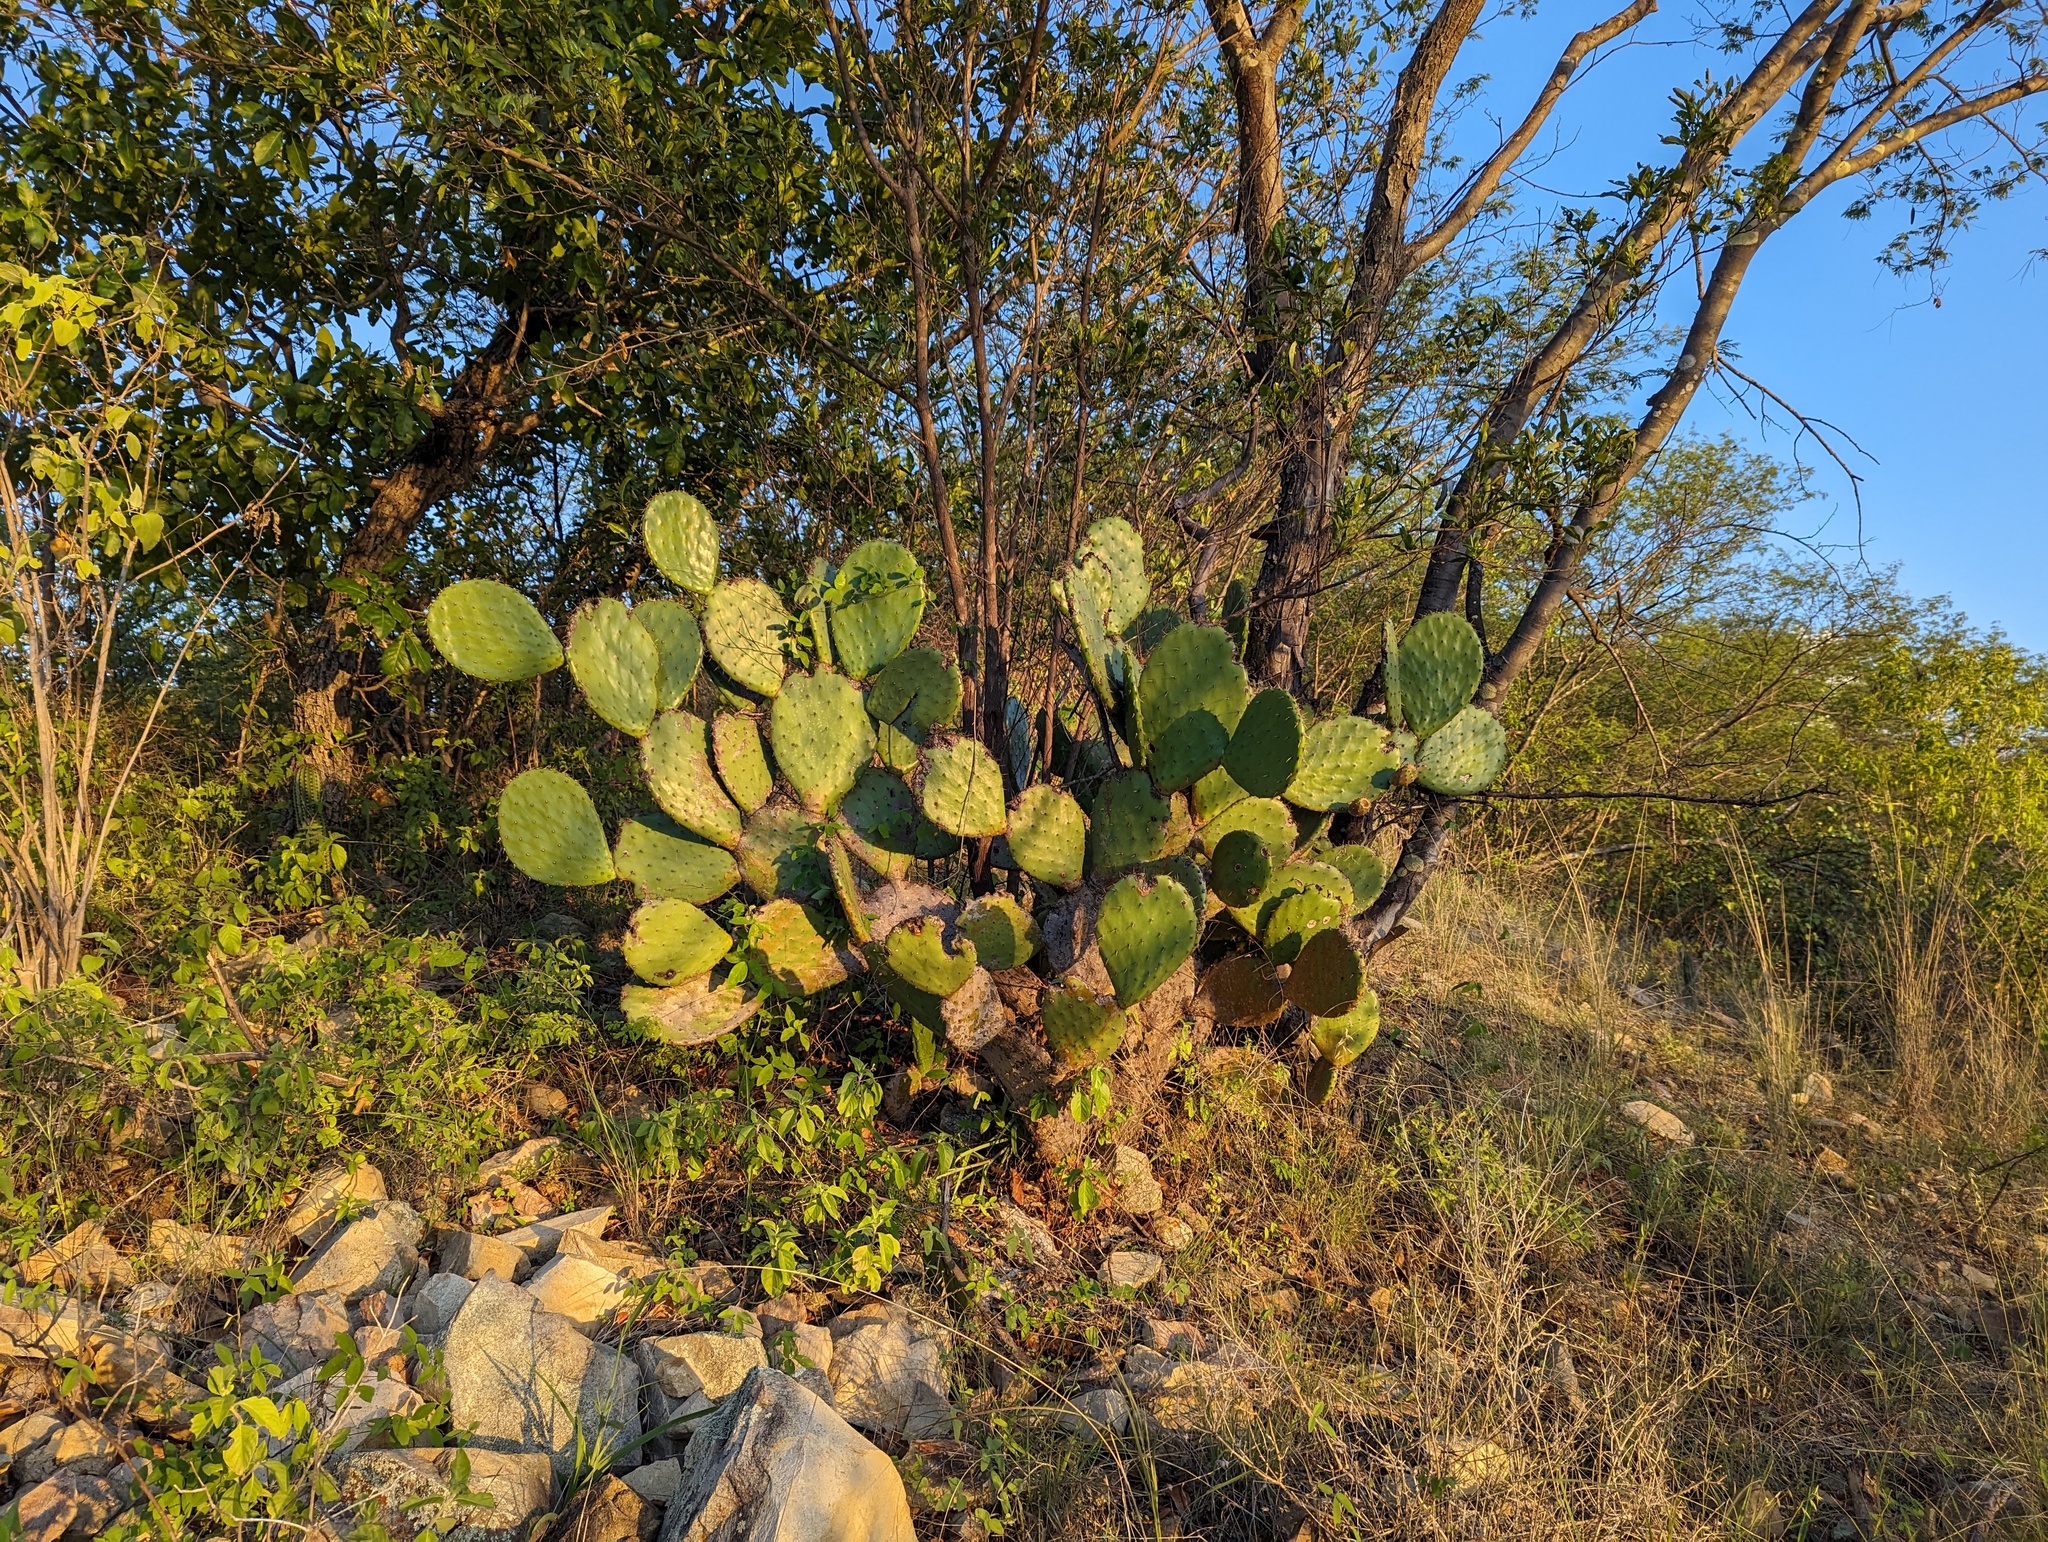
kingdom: Plantae
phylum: Tracheophyta
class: Magnoliopsida
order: Caryophyllales
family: Cactaceae
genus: Opuntia
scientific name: Opuntia sierralagunensis
